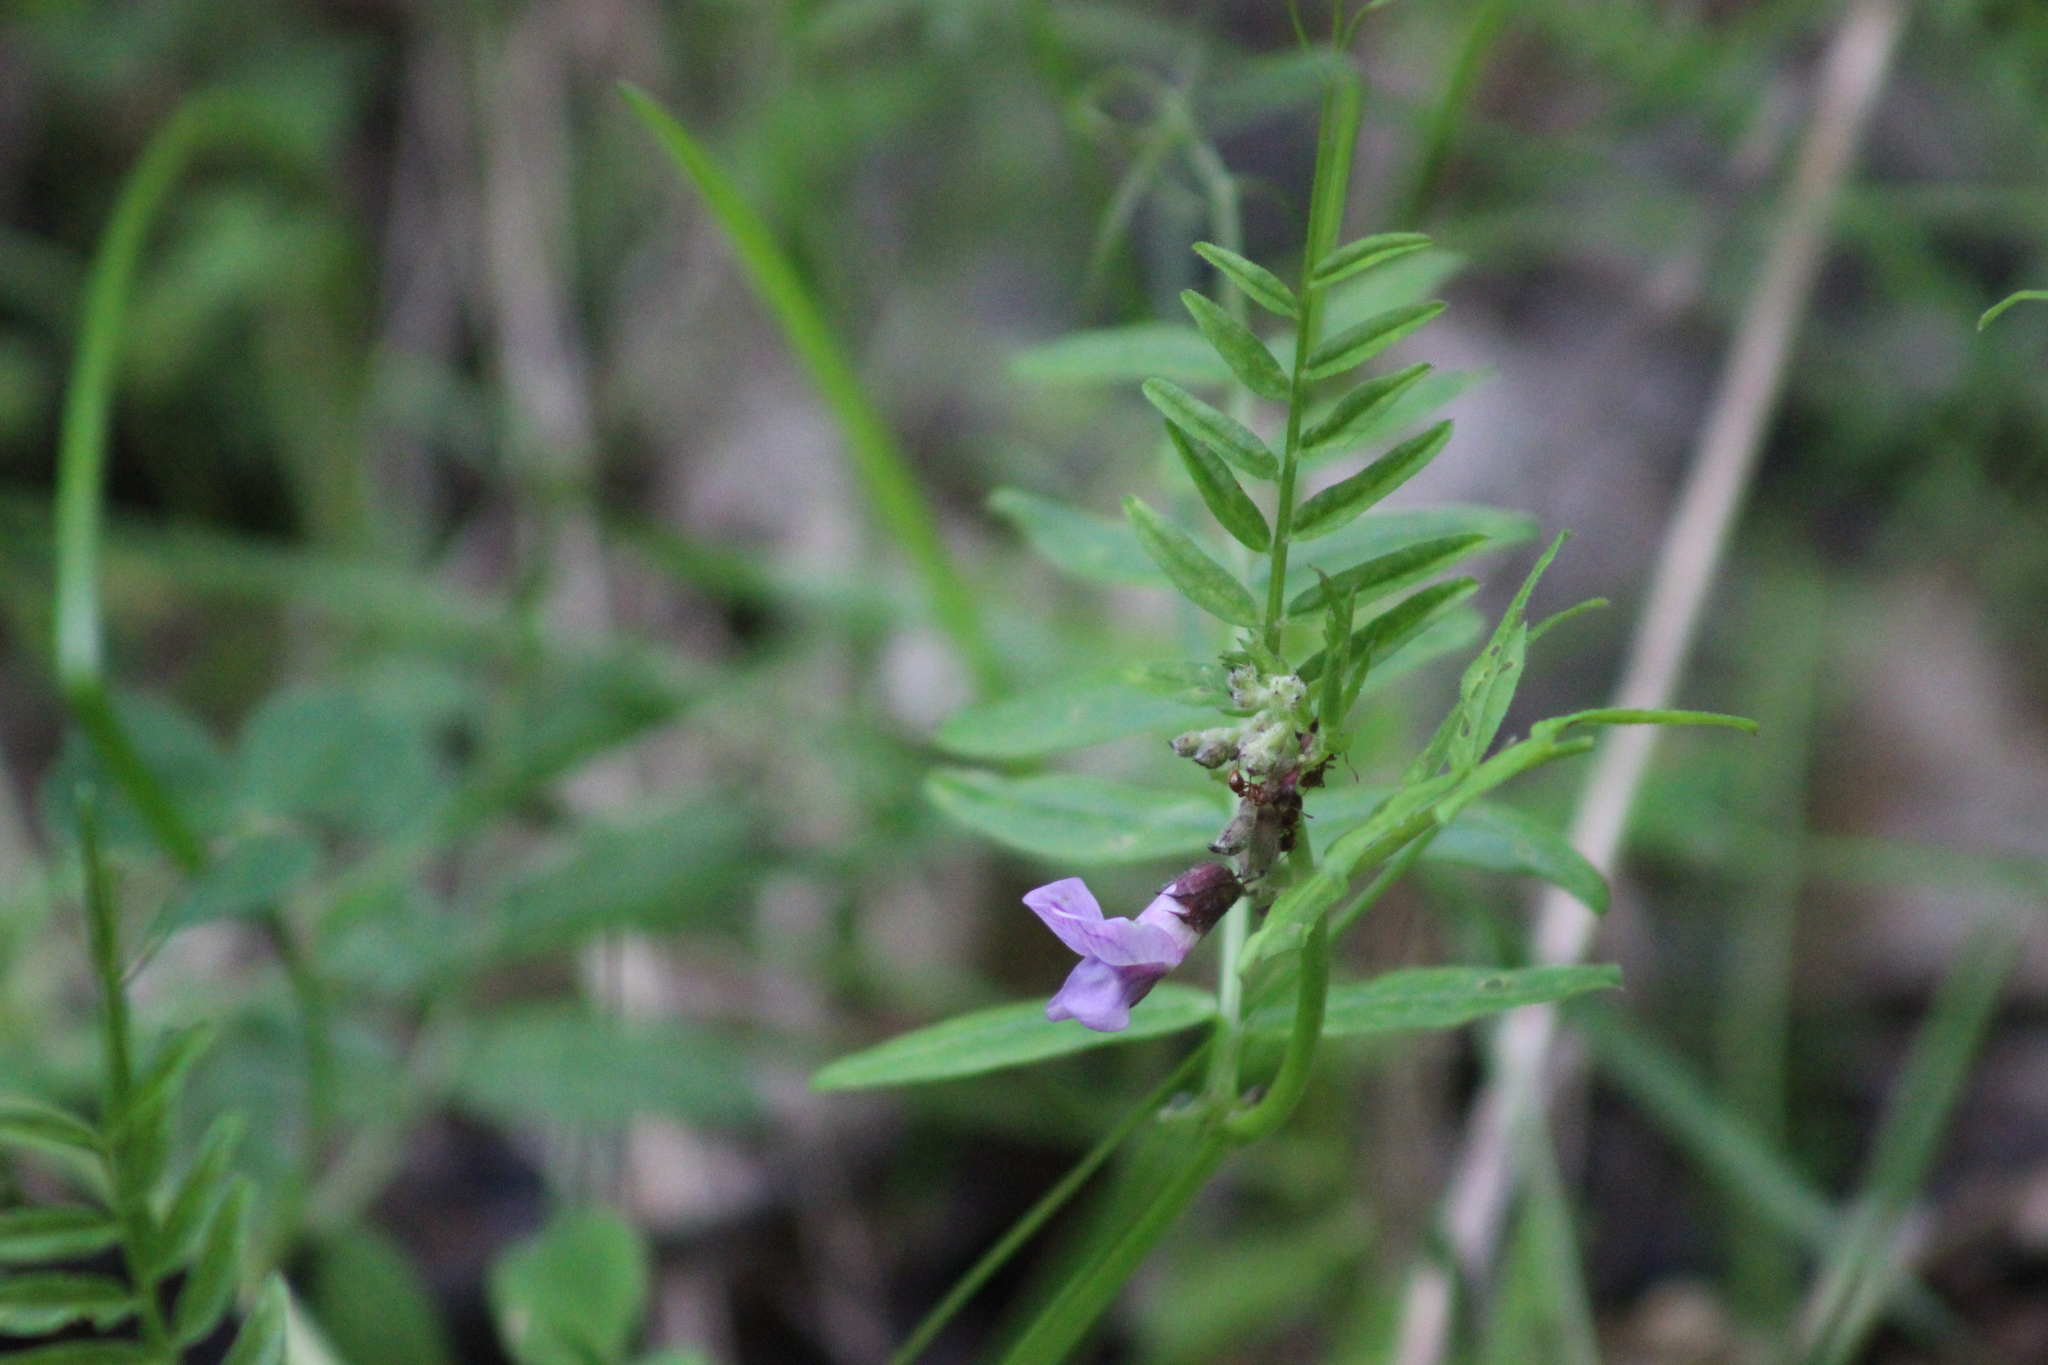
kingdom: Plantae
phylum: Tracheophyta
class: Magnoliopsida
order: Fabales
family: Fabaceae
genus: Vicia
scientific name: Vicia sepium
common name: Bush vetch
